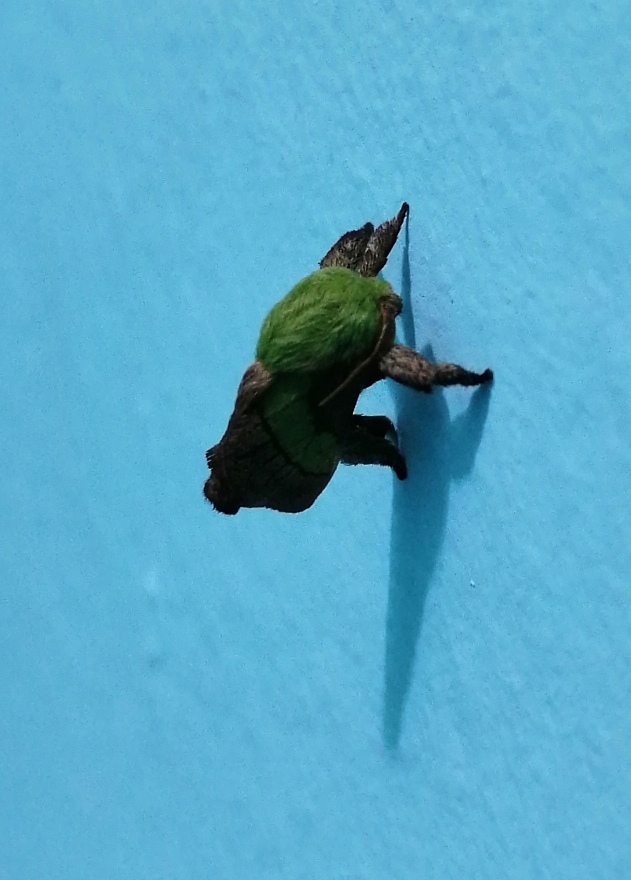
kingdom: Animalia
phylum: Arthropoda
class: Insecta
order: Lepidoptera
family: Limacodidae
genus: Parasa
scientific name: Parasa minima
